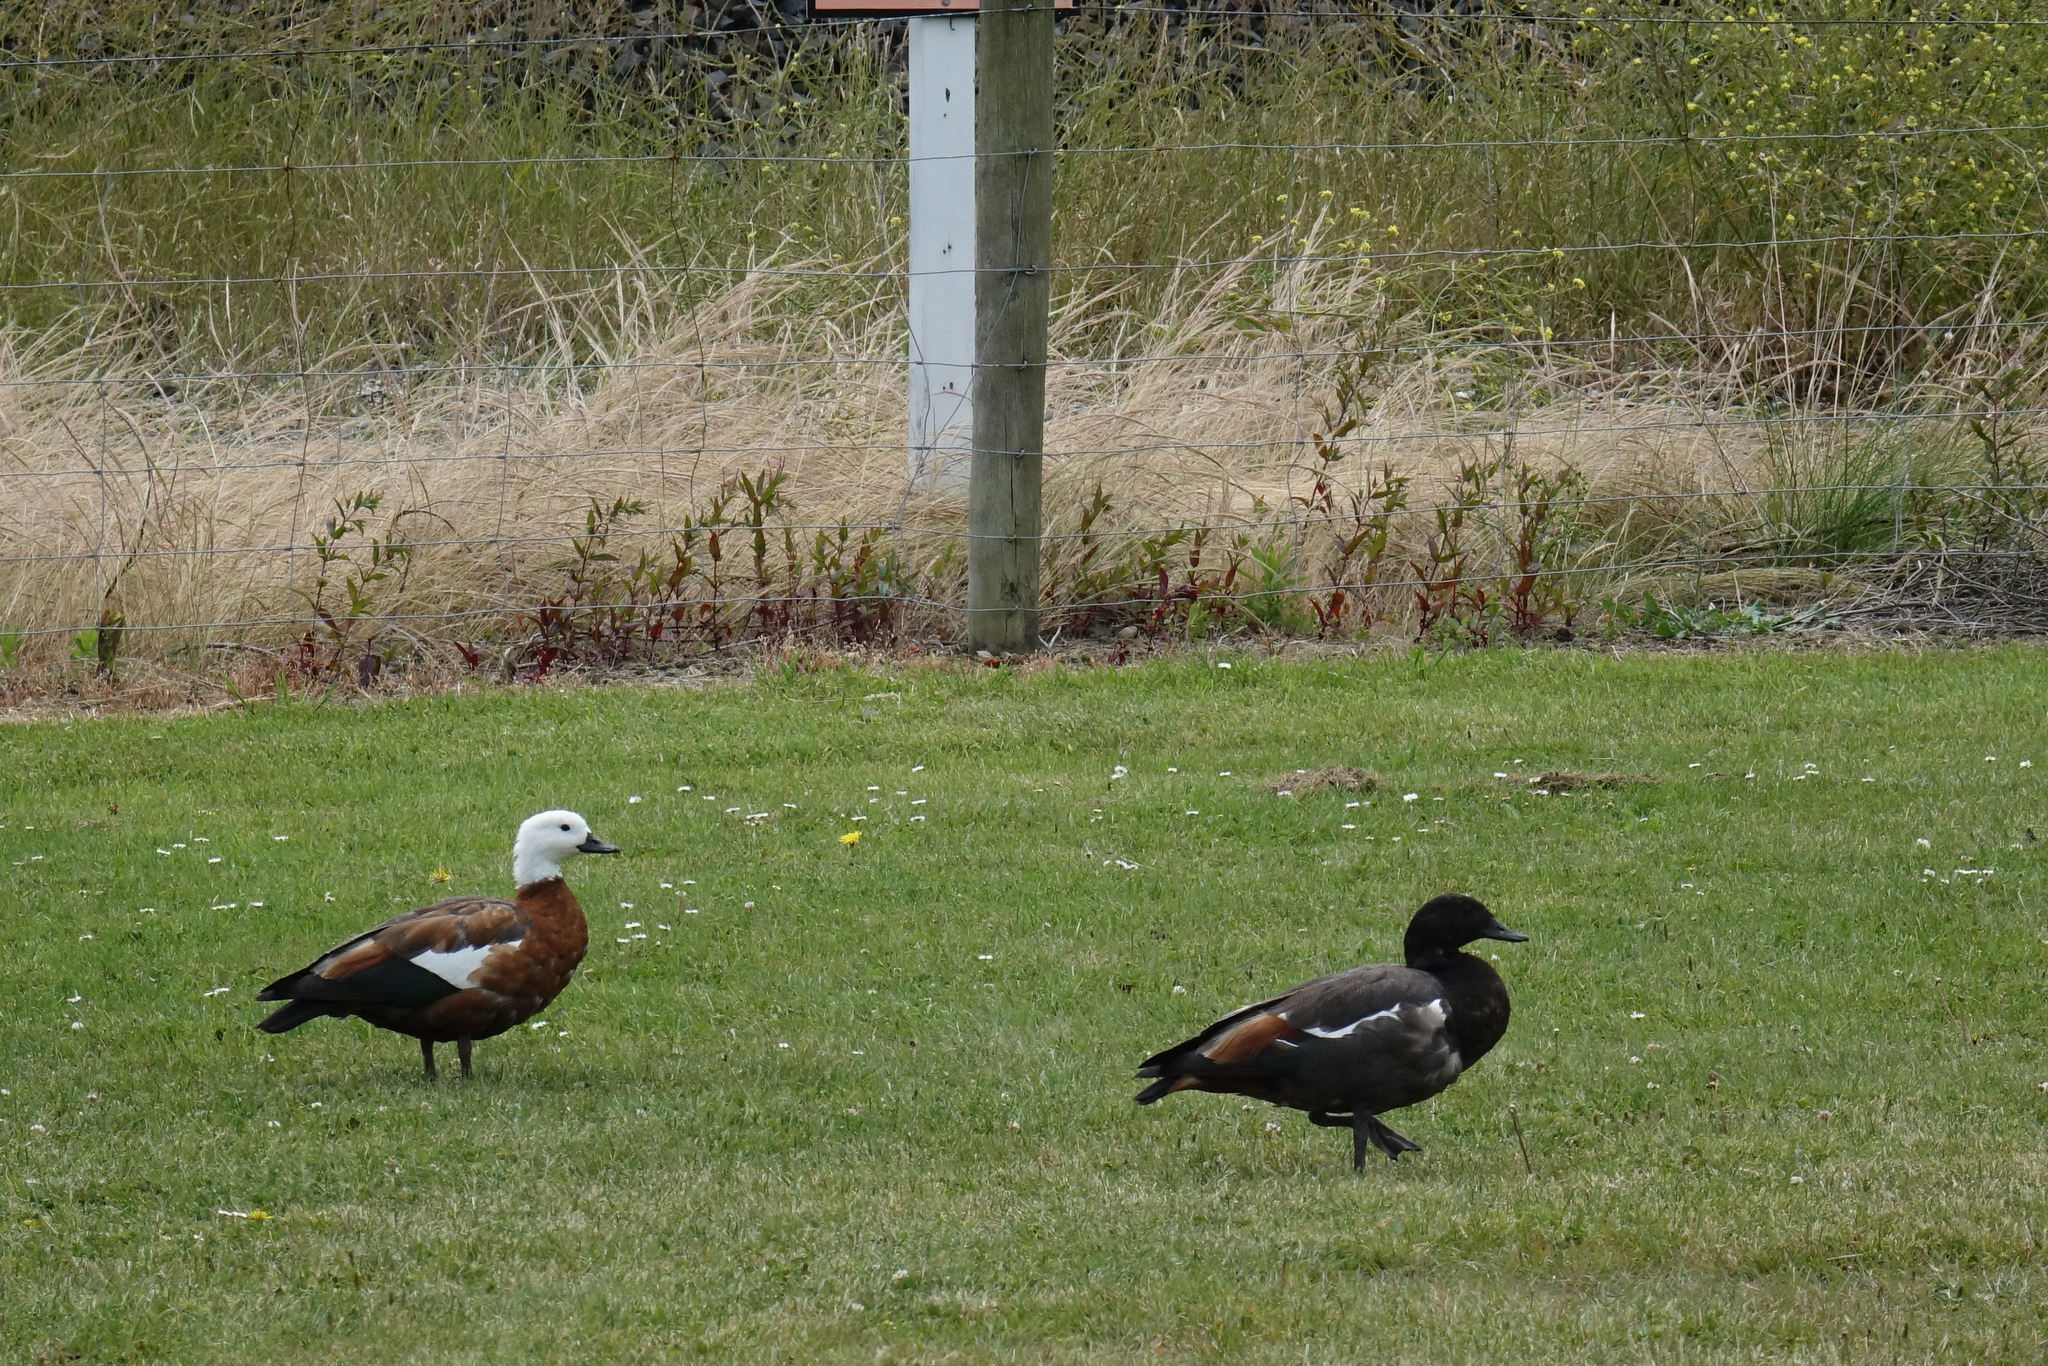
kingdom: Animalia
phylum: Chordata
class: Aves
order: Anseriformes
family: Anatidae
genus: Tadorna
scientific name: Tadorna variegata
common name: Paradise shelduck
